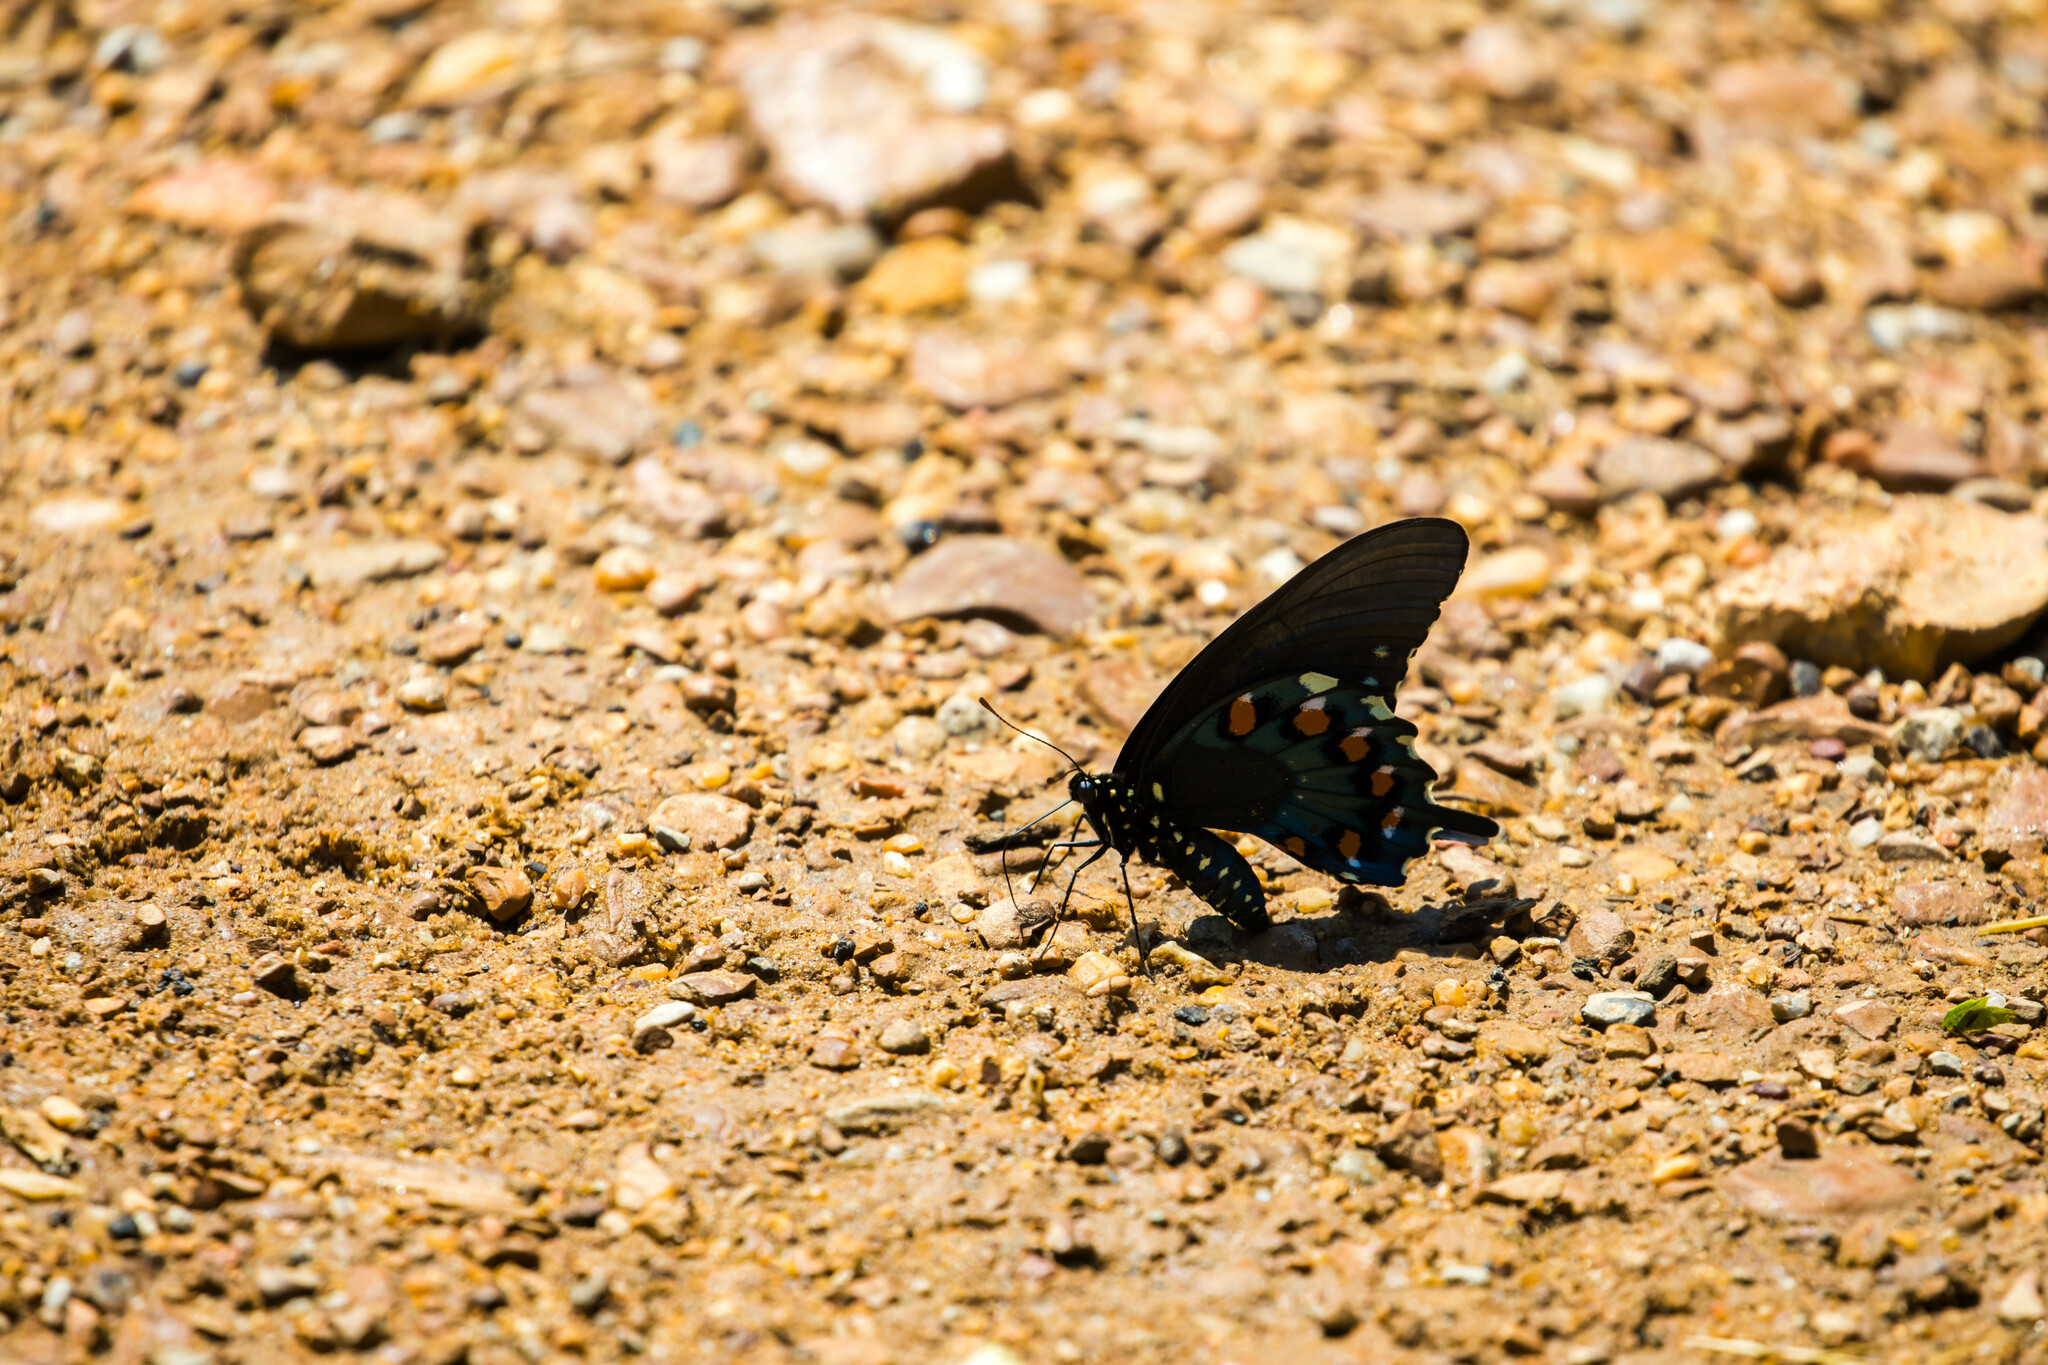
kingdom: Animalia
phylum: Arthropoda
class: Insecta
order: Lepidoptera
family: Papilionidae
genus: Battus
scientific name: Battus philenor
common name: Pipevine swallowtail
